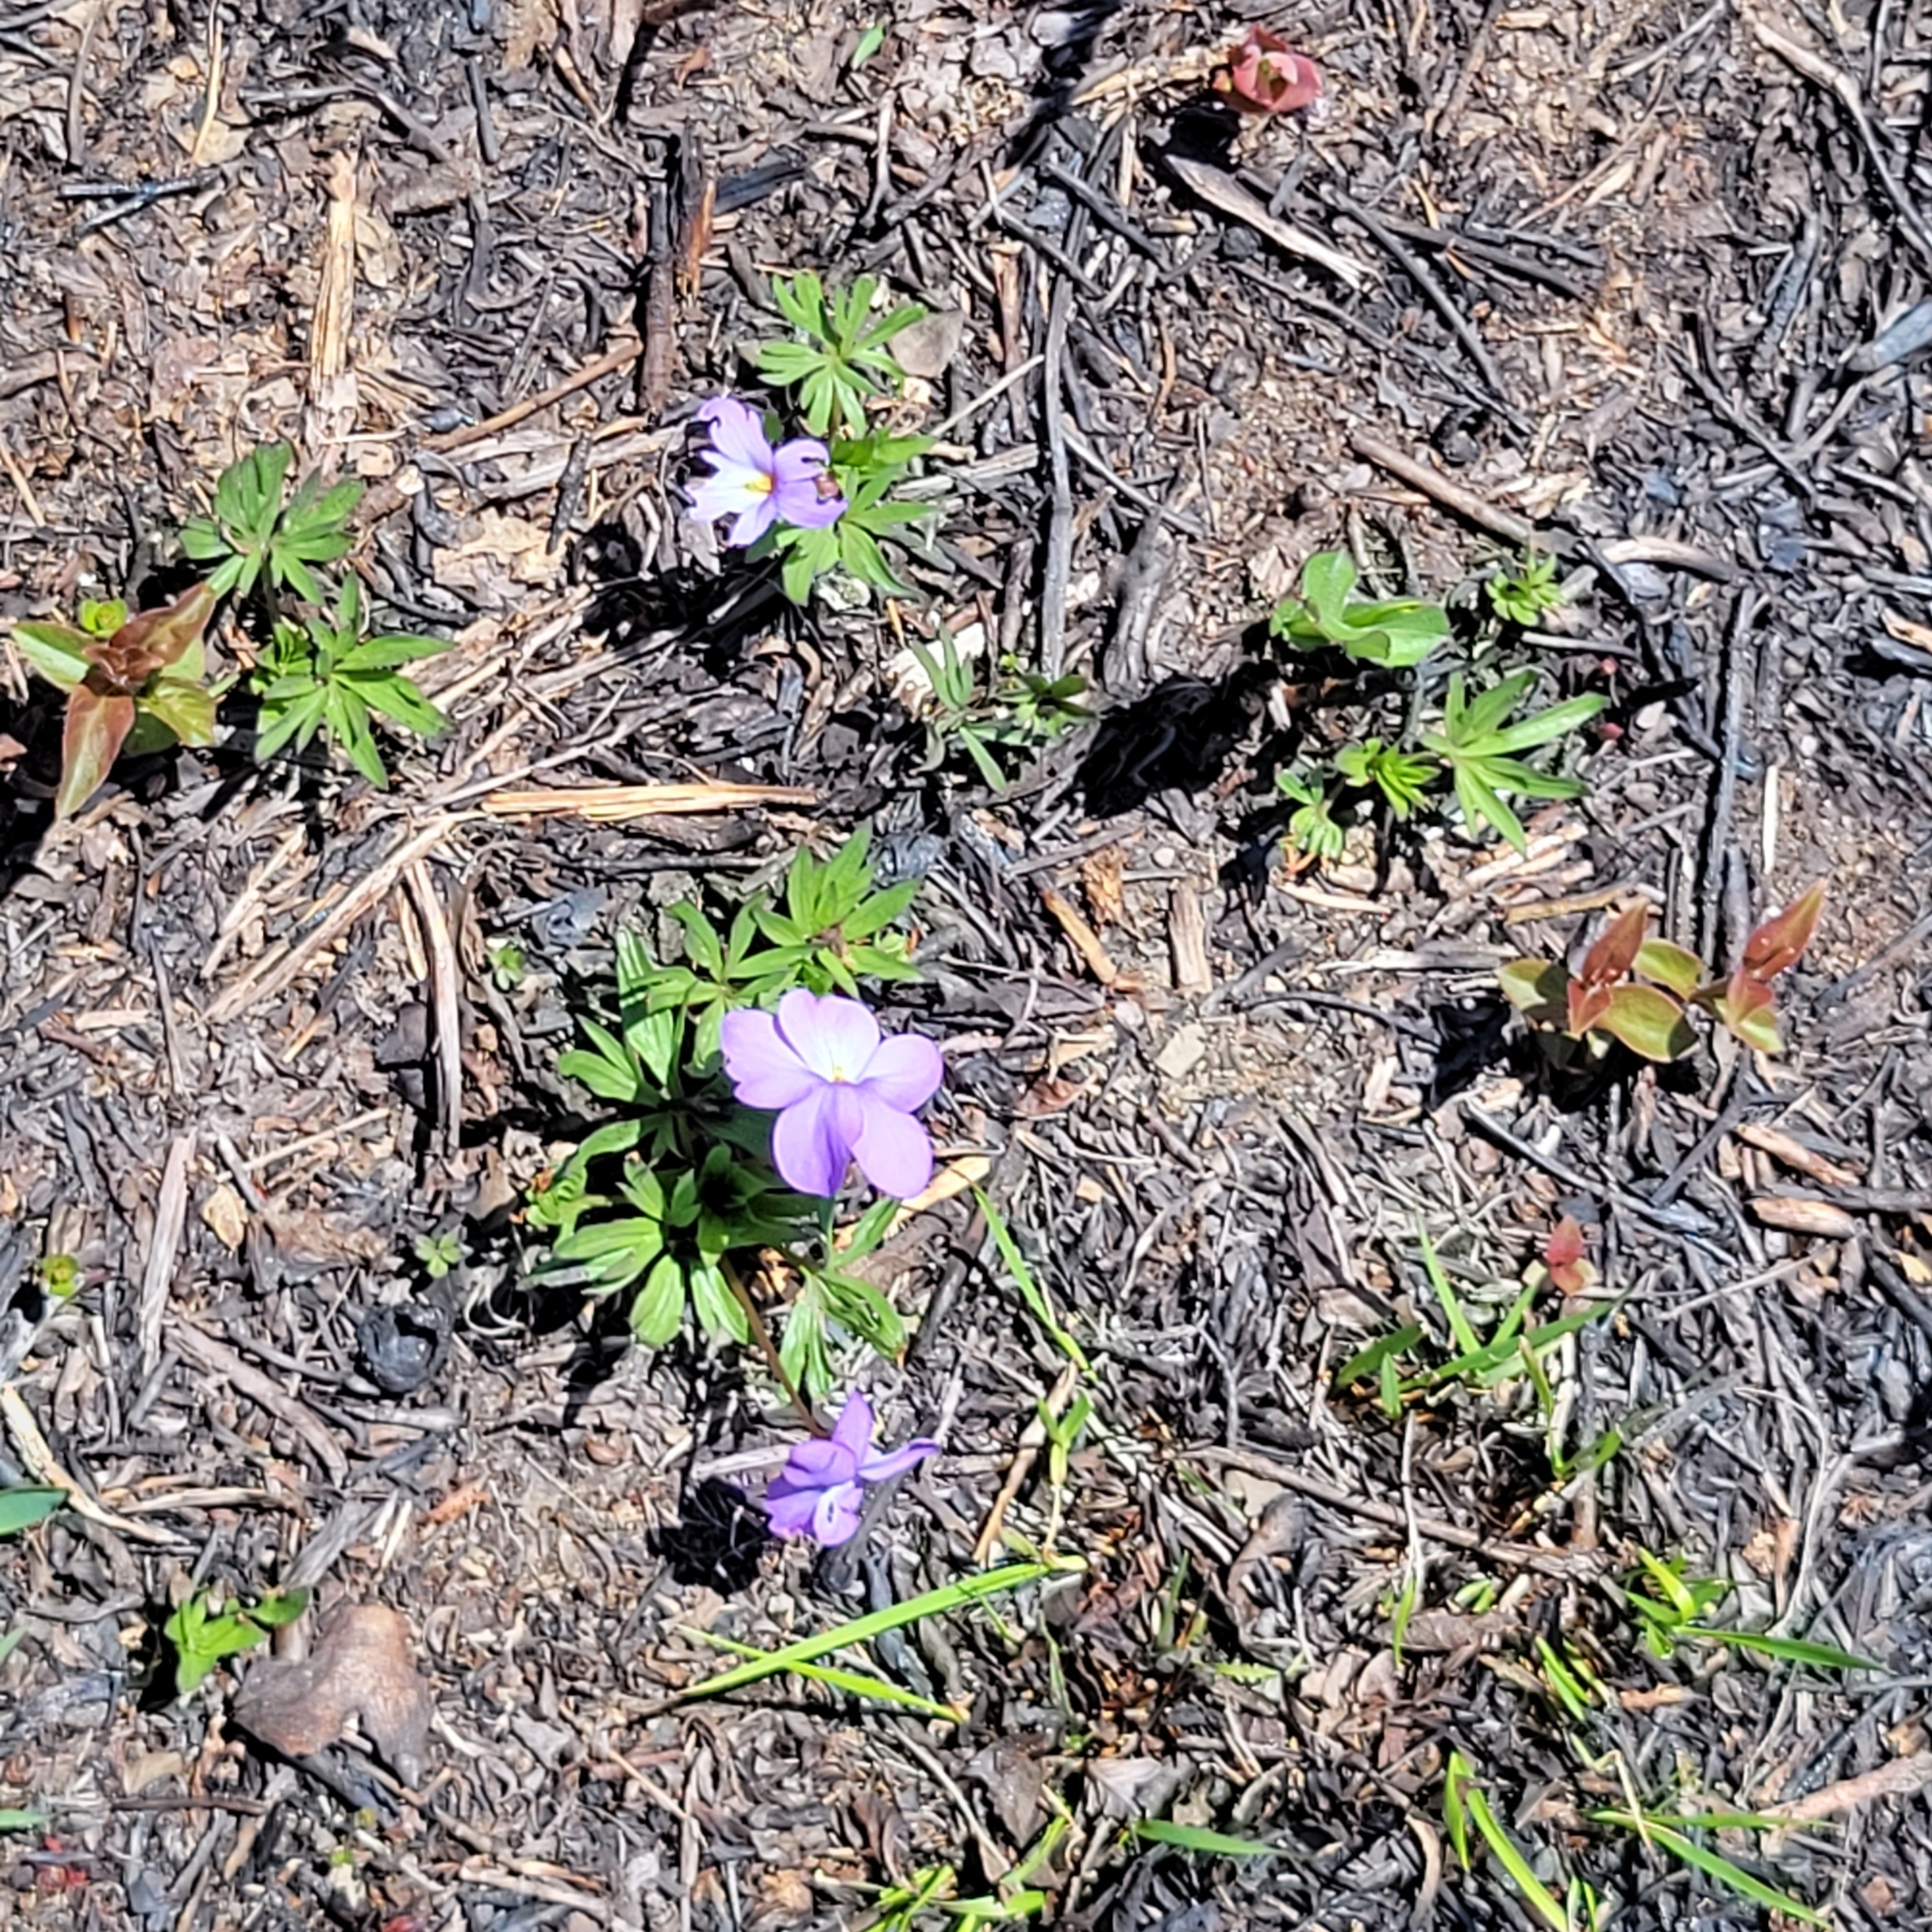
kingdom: Plantae
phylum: Tracheophyta
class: Magnoliopsida
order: Malpighiales
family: Violaceae
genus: Viola
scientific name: Viola pedata
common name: Pansy violet
